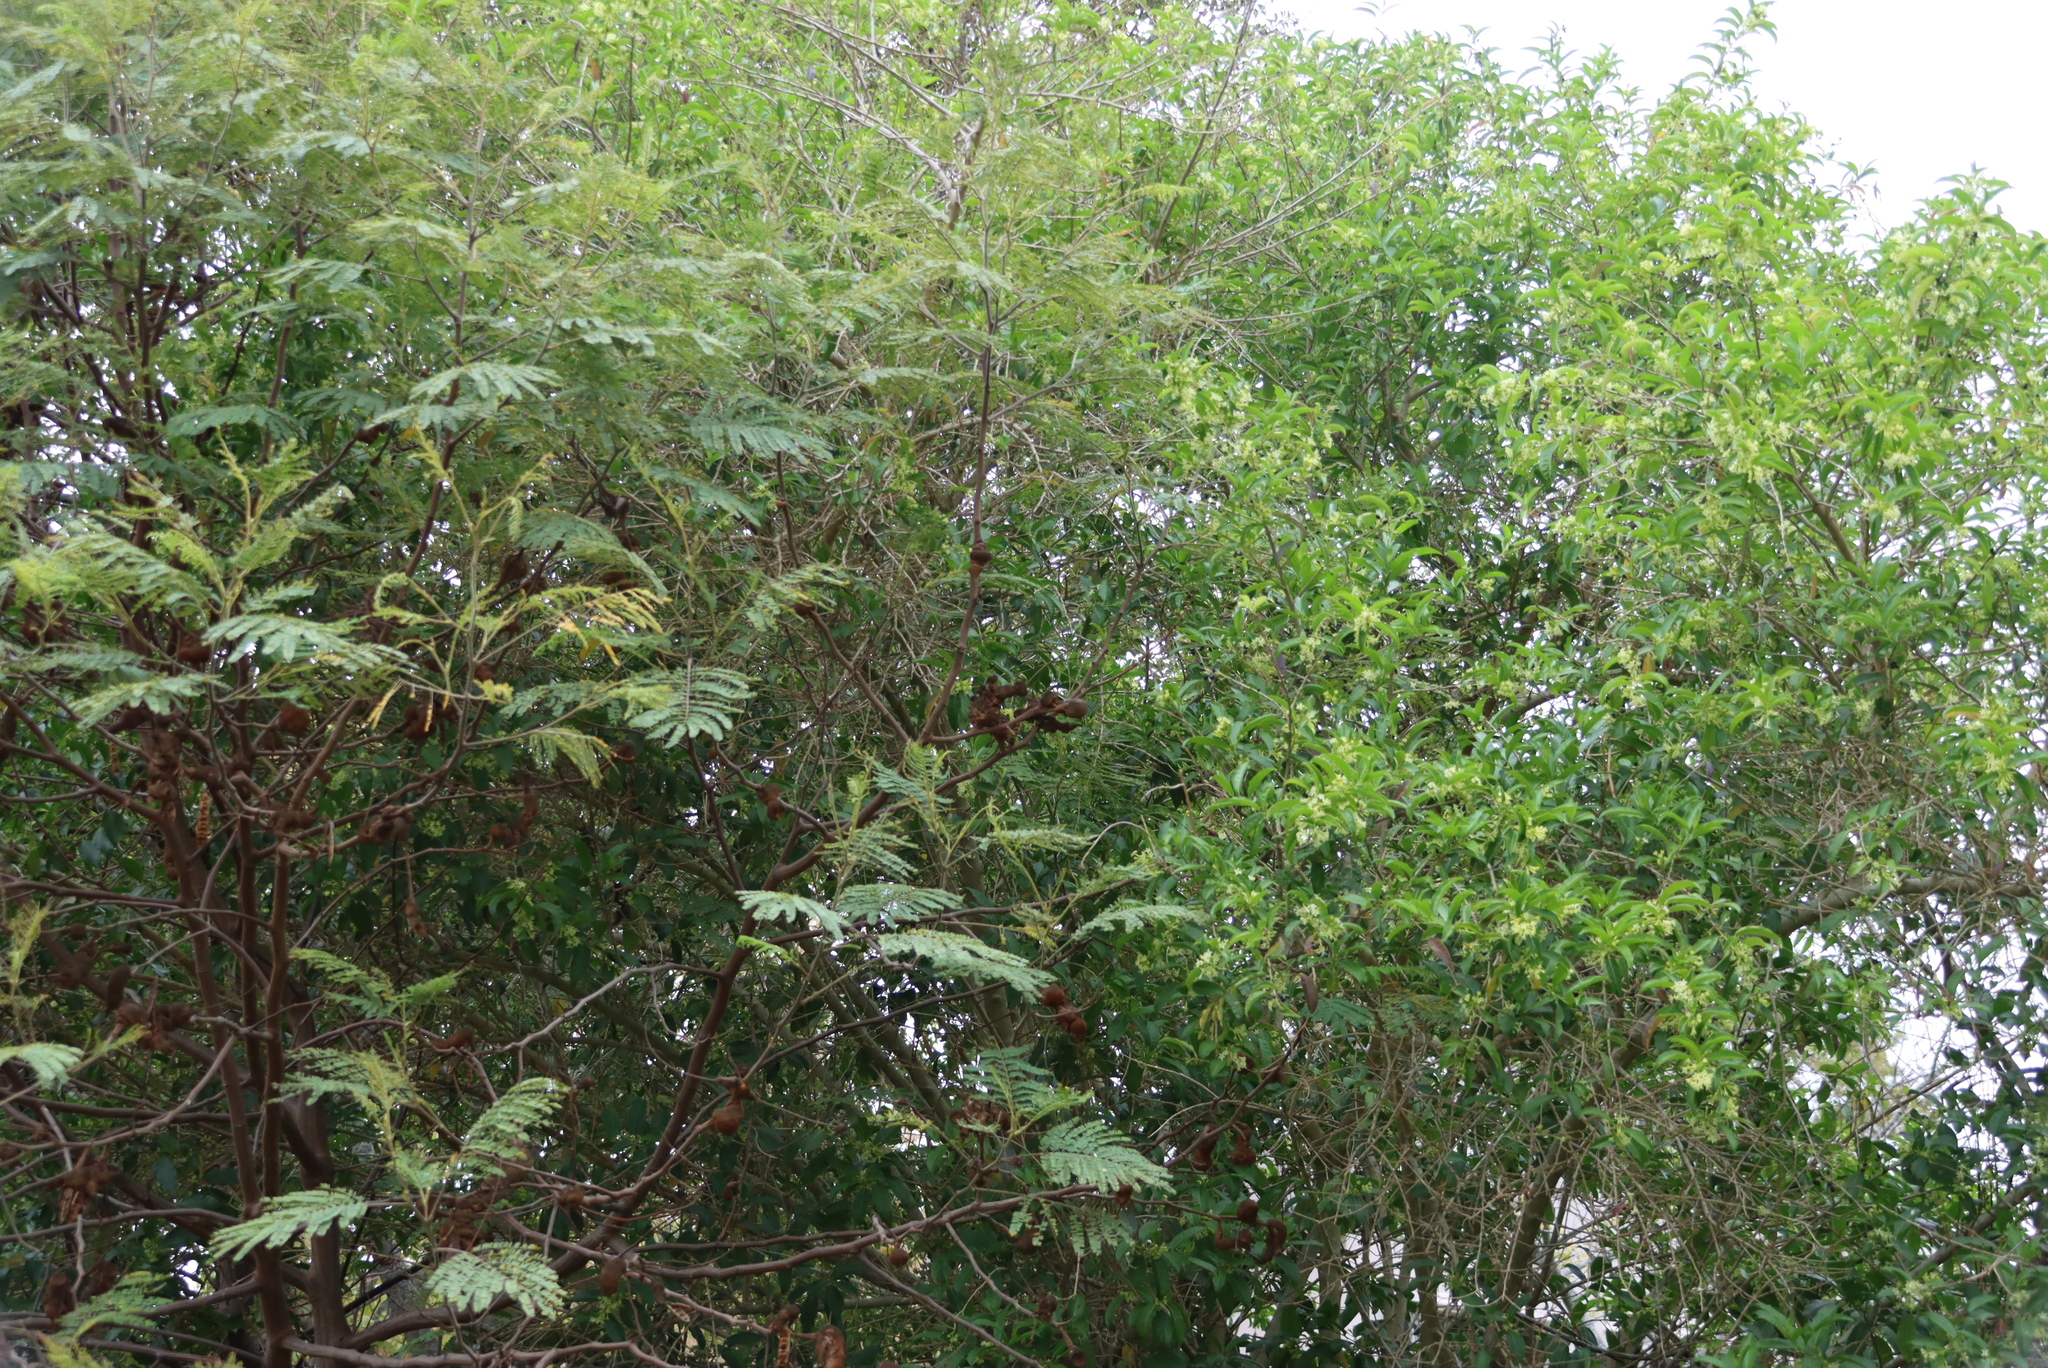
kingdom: Plantae
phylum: Tracheophyta
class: Magnoliopsida
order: Fabales
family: Fabaceae
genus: Paraserianthes
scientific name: Paraserianthes lophantha
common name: Plume albizia
